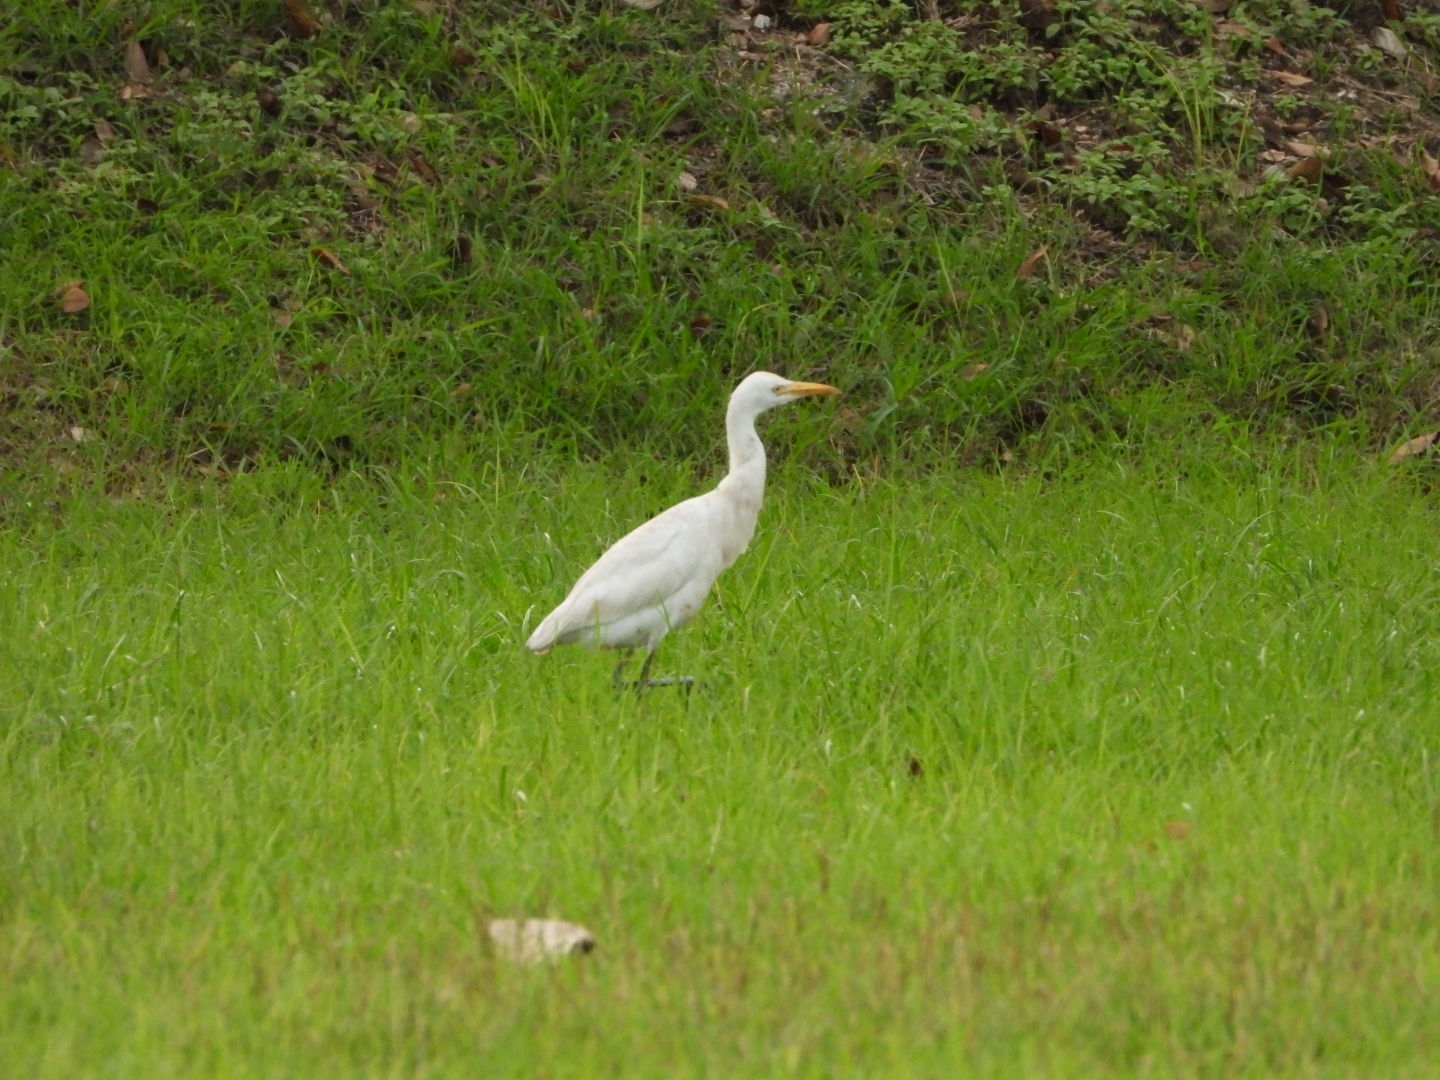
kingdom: Animalia
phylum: Chordata
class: Aves
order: Pelecaniformes
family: Ardeidae
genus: Bubulcus
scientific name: Bubulcus coromandus
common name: Eastern cattle egret
